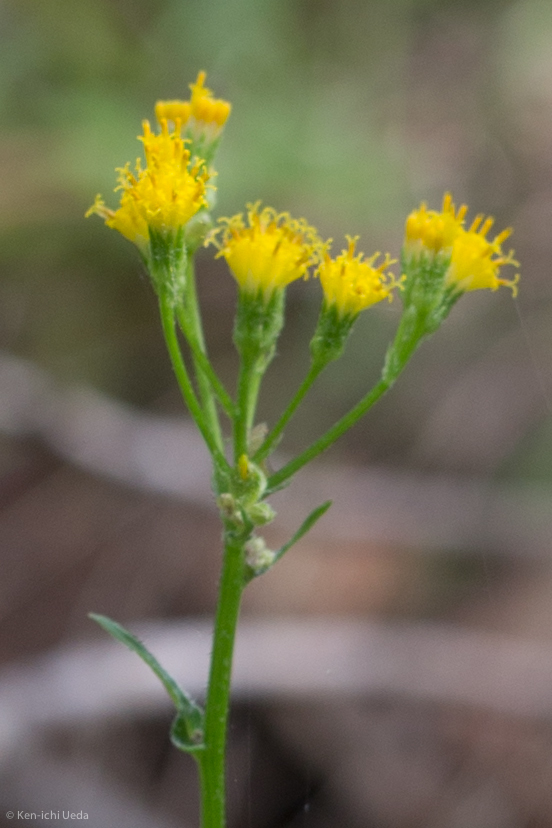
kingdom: Plantae
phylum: Tracheophyta
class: Magnoliopsida
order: Asterales
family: Asteraceae
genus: Senecio
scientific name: Senecio aronicoides
